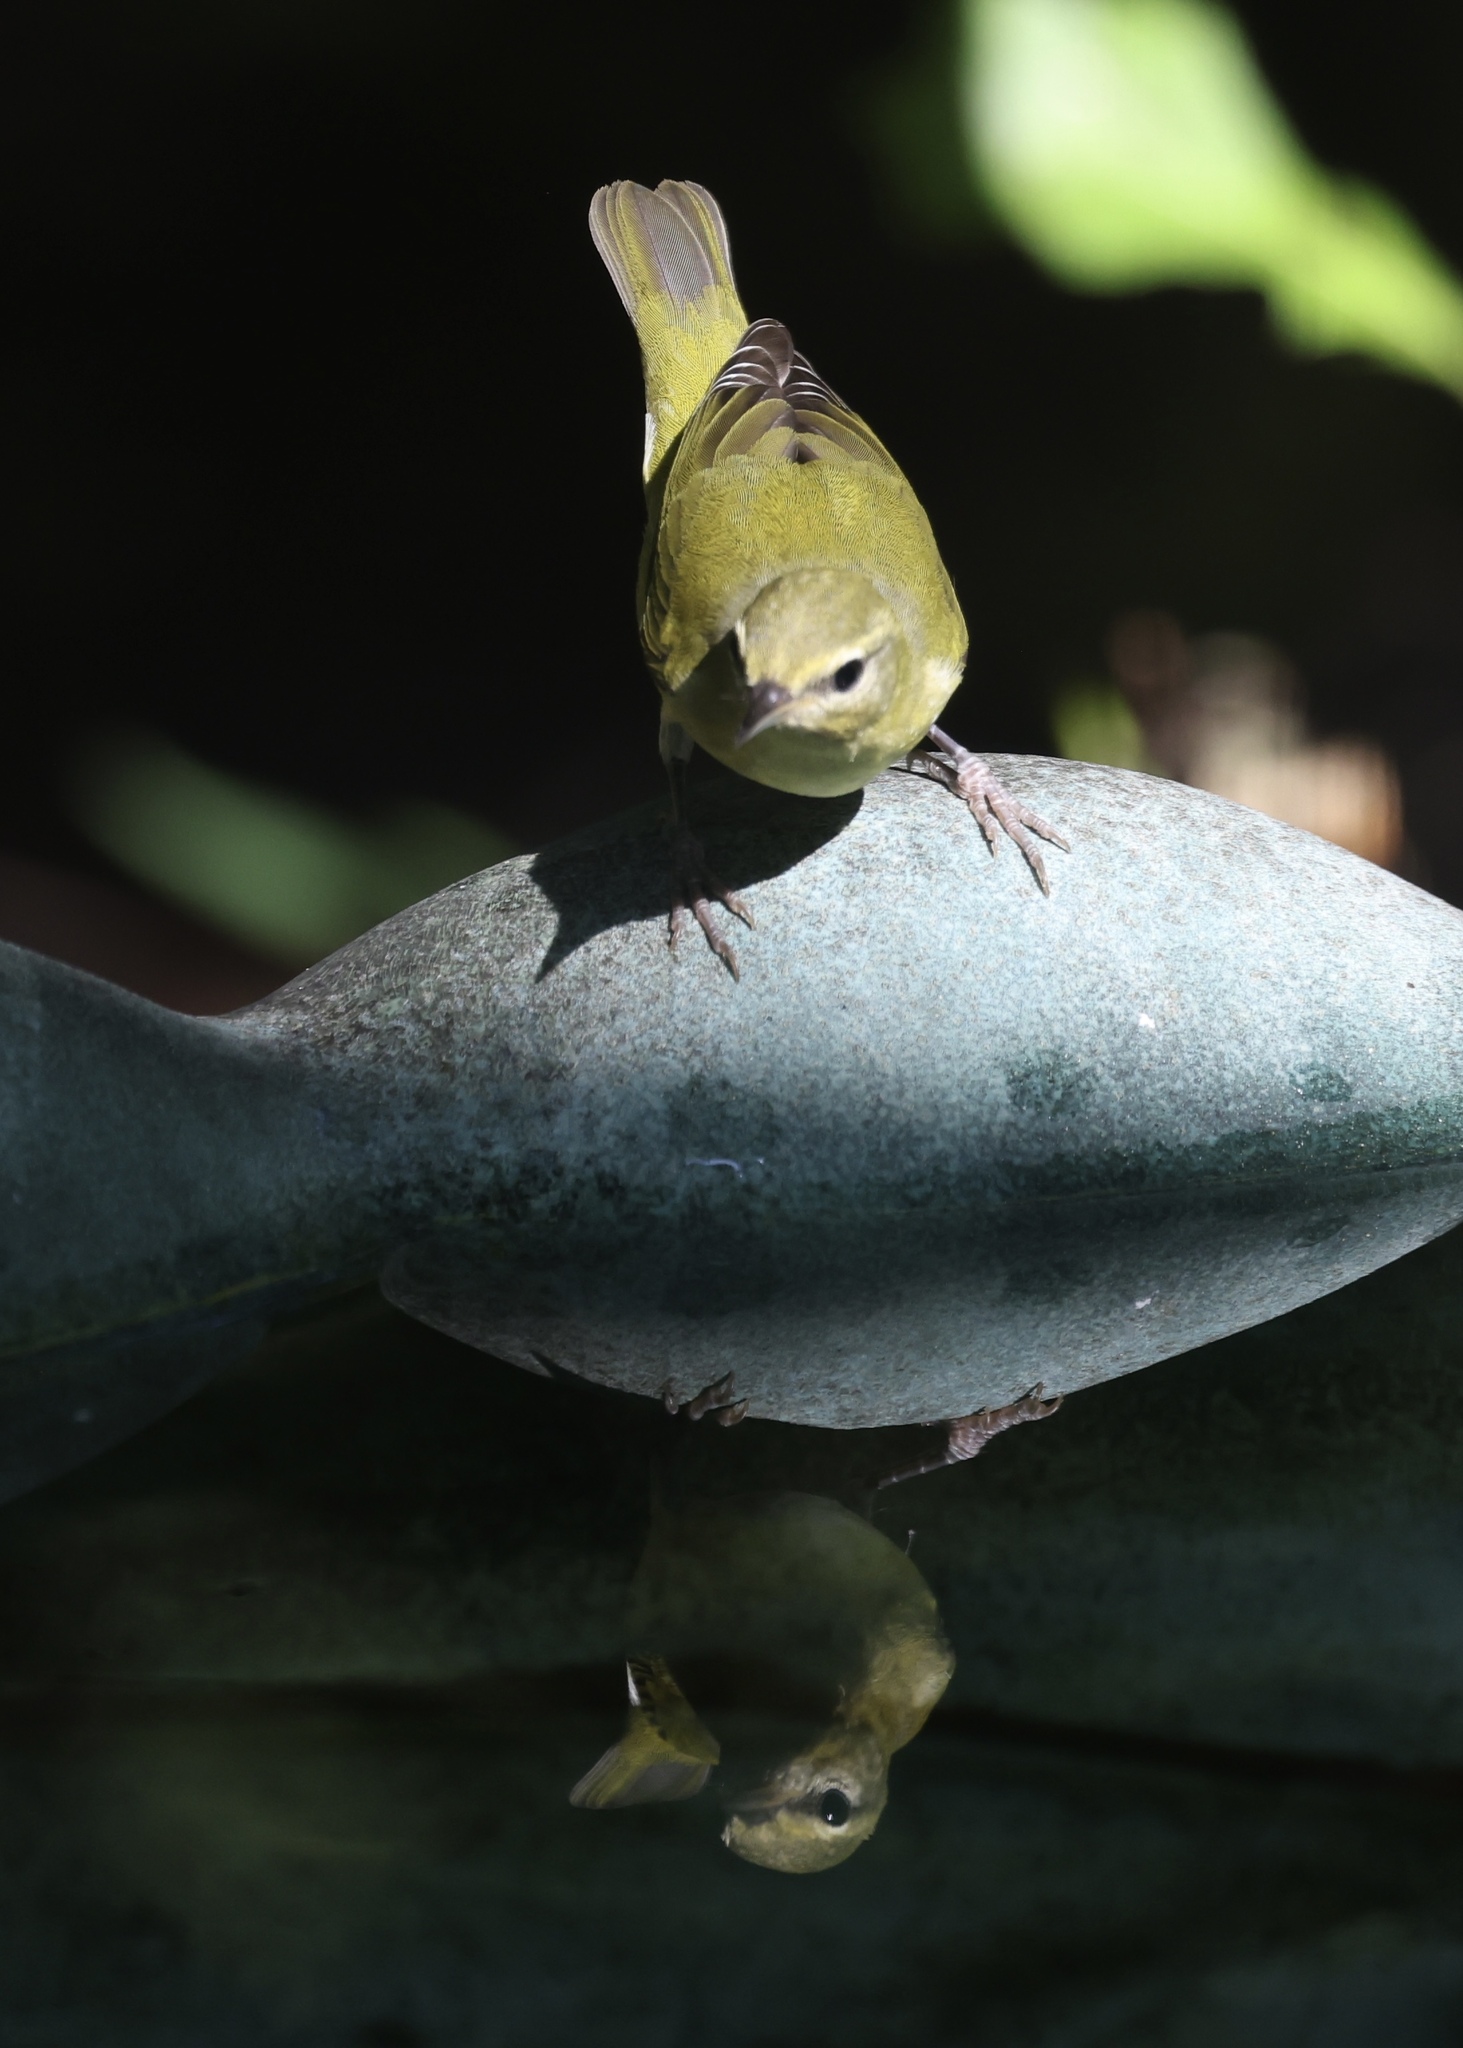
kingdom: Animalia
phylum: Chordata
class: Aves
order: Passeriformes
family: Parulidae
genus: Leiothlypis
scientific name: Leiothlypis peregrina
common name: Tennessee warbler
